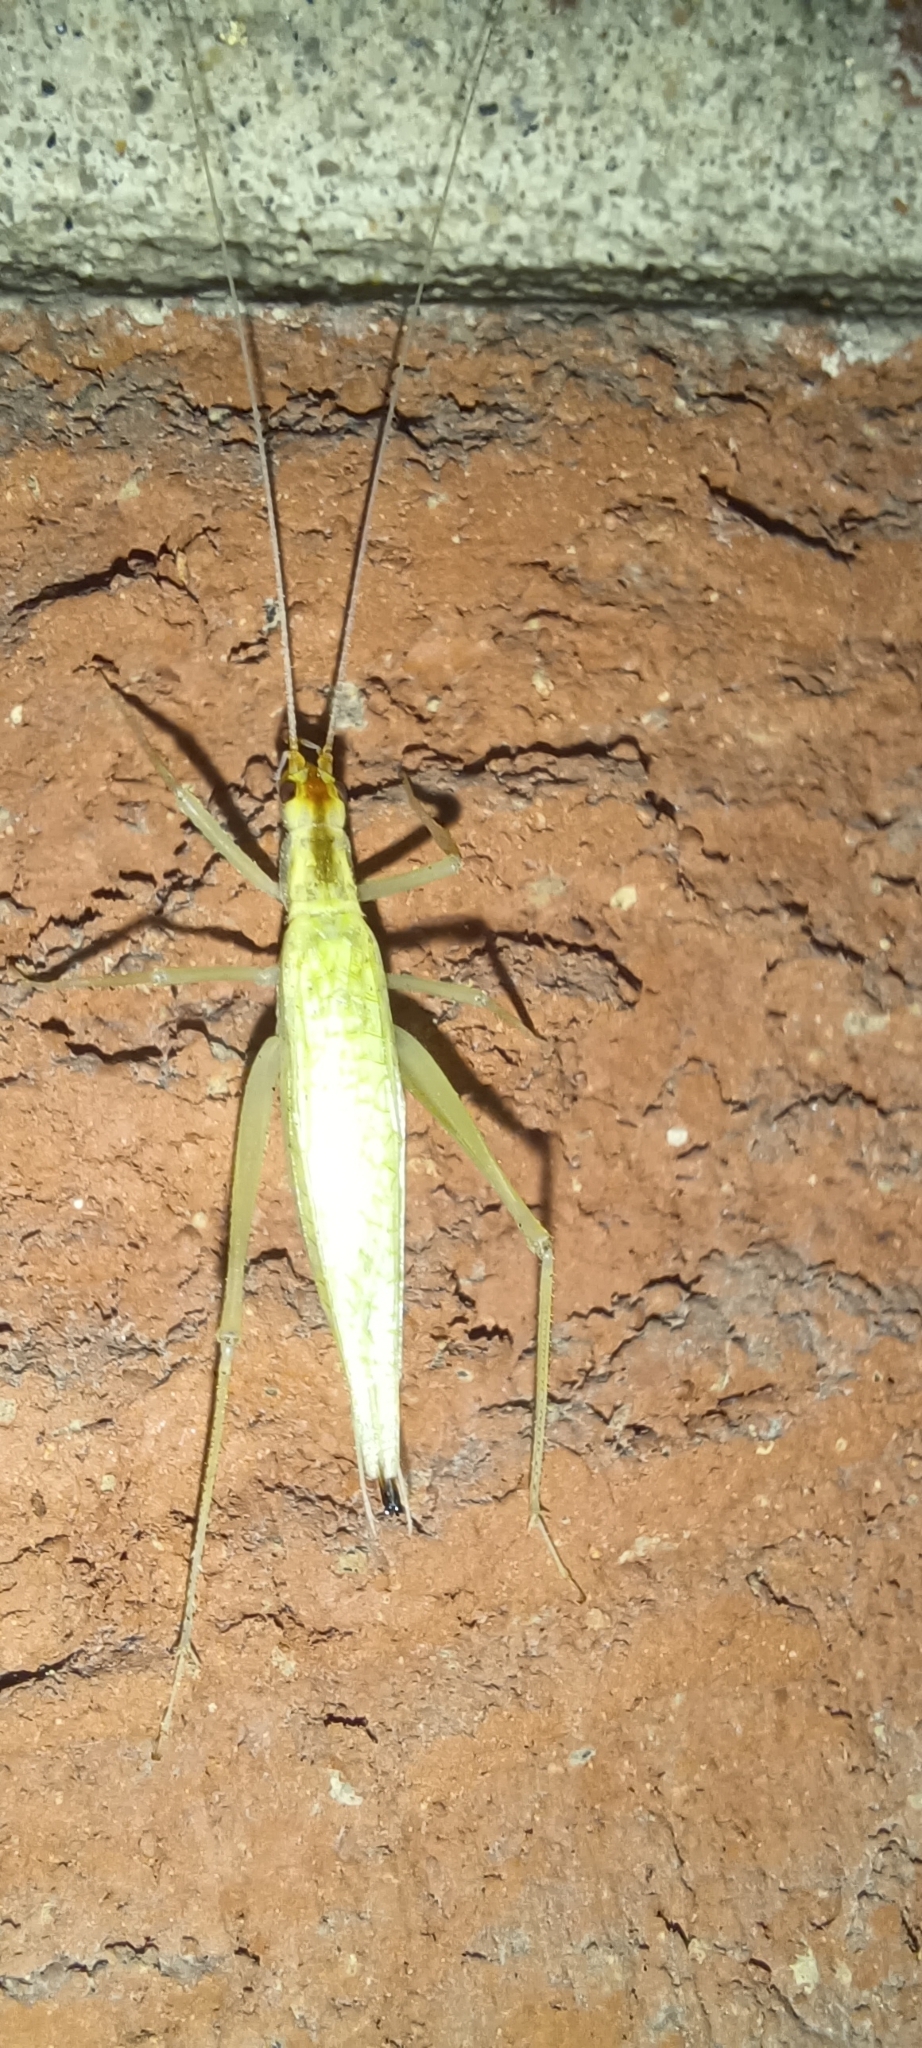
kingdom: Animalia
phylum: Arthropoda
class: Insecta
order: Orthoptera
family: Gryllidae
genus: Oecanthus
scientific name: Oecanthus niveus
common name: Narrow-winged tree cricket
